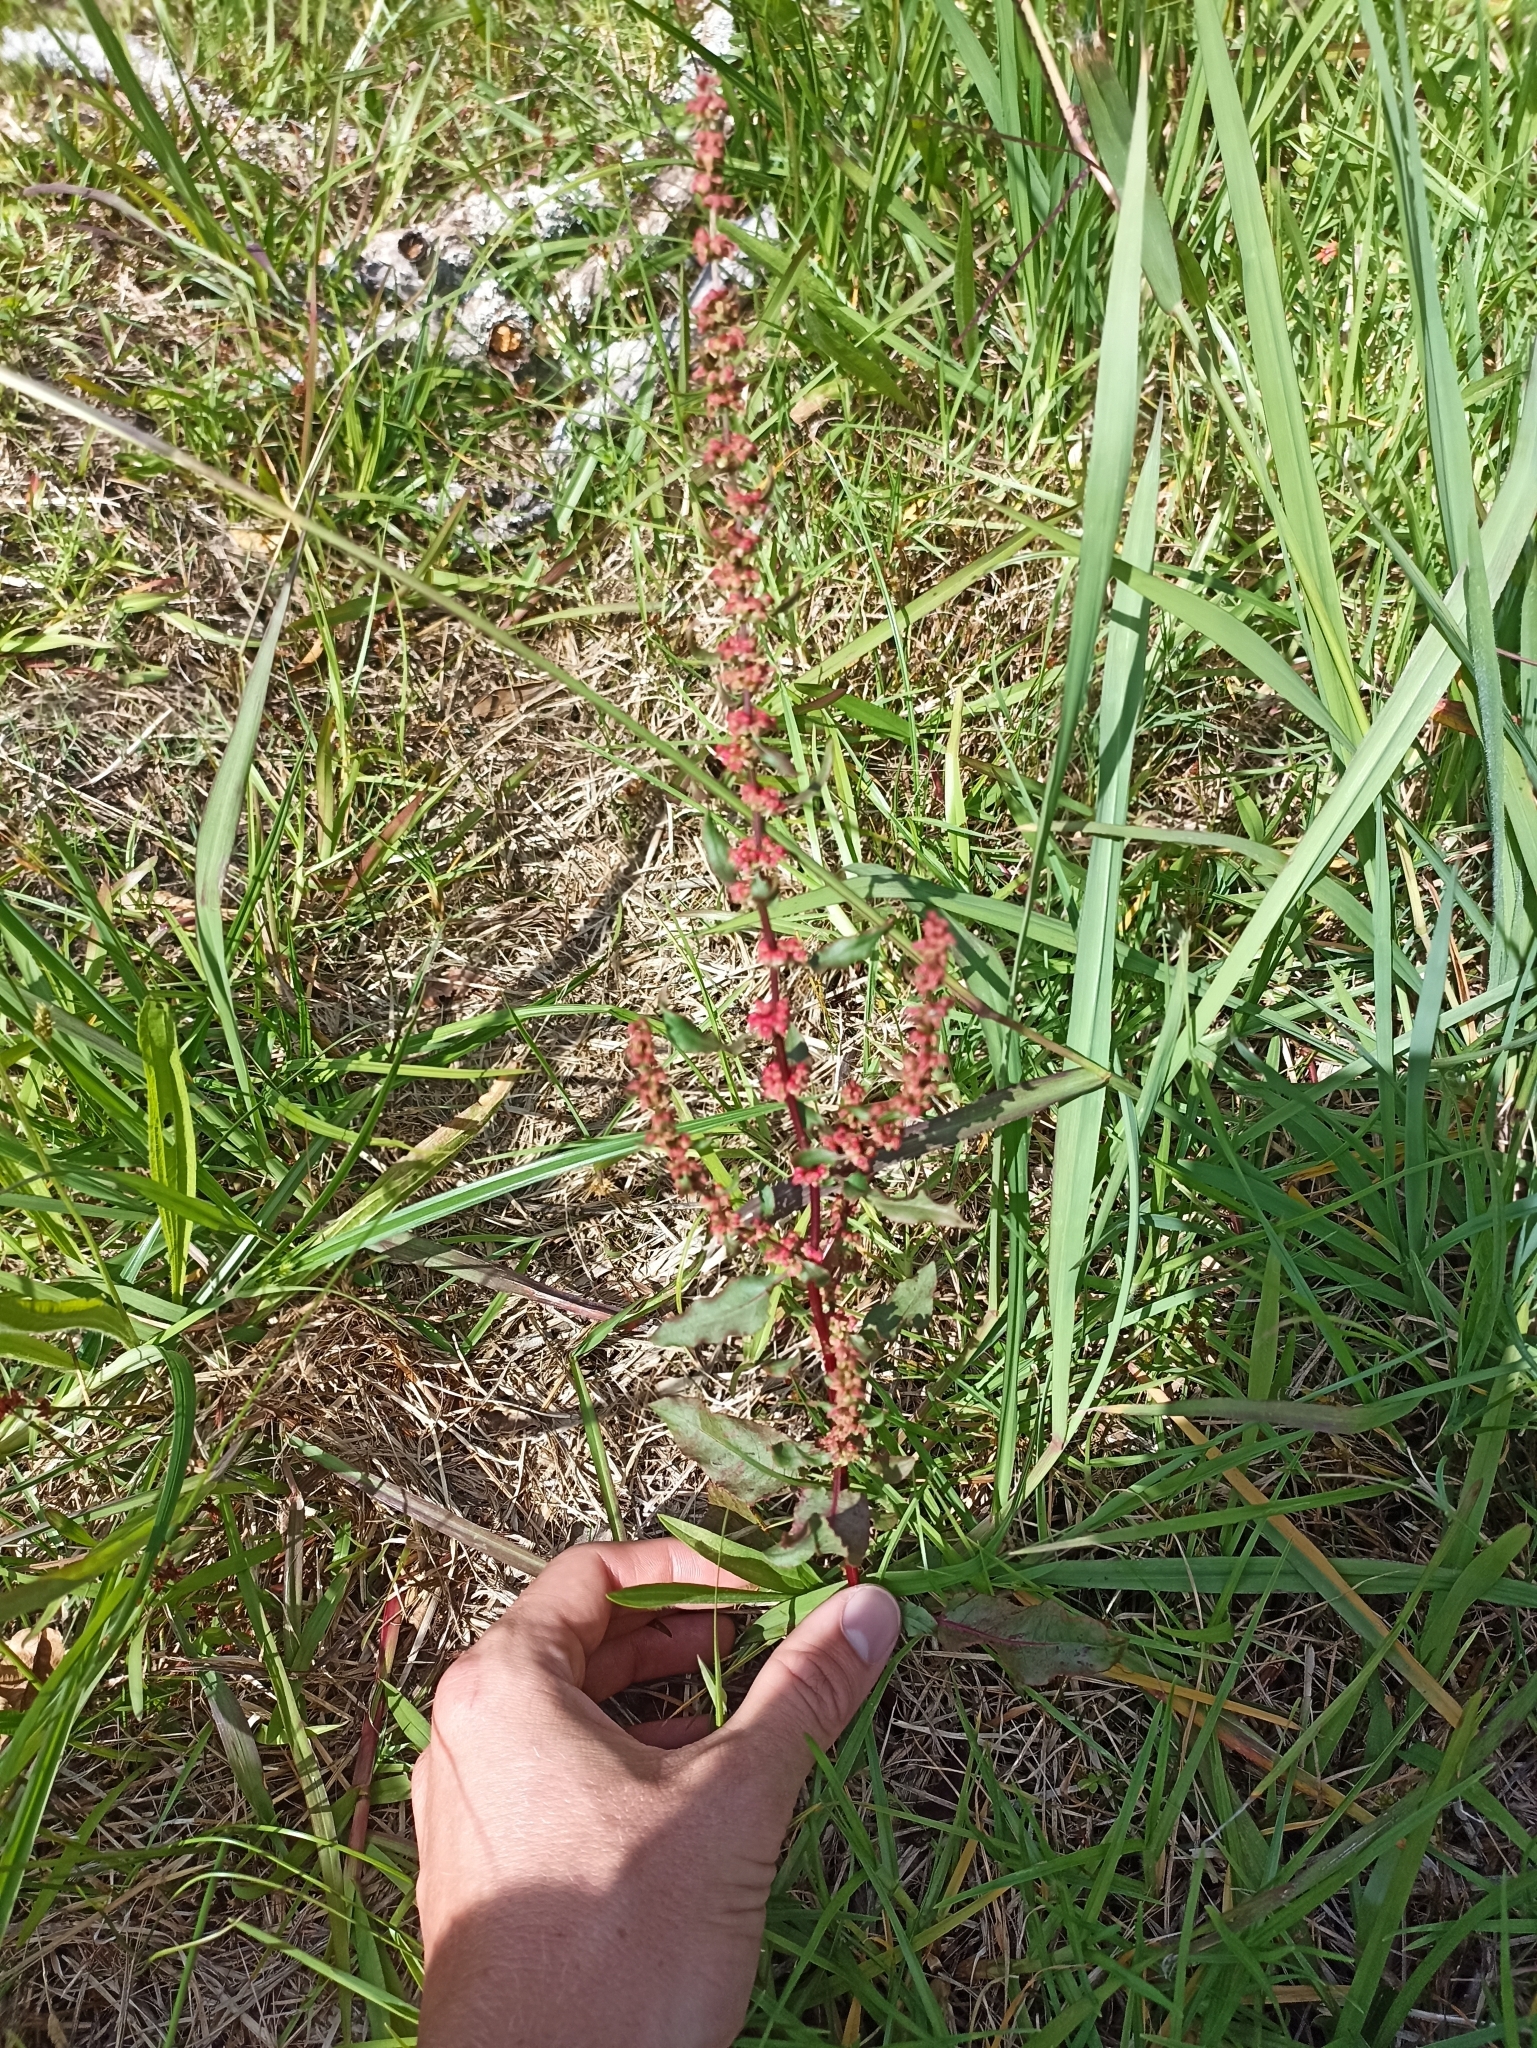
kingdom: Plantae
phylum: Tracheophyta
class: Magnoliopsida
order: Caryophyllales
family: Polygonaceae
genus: Rumex
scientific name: Rumex conglomeratus
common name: Clustered dock
